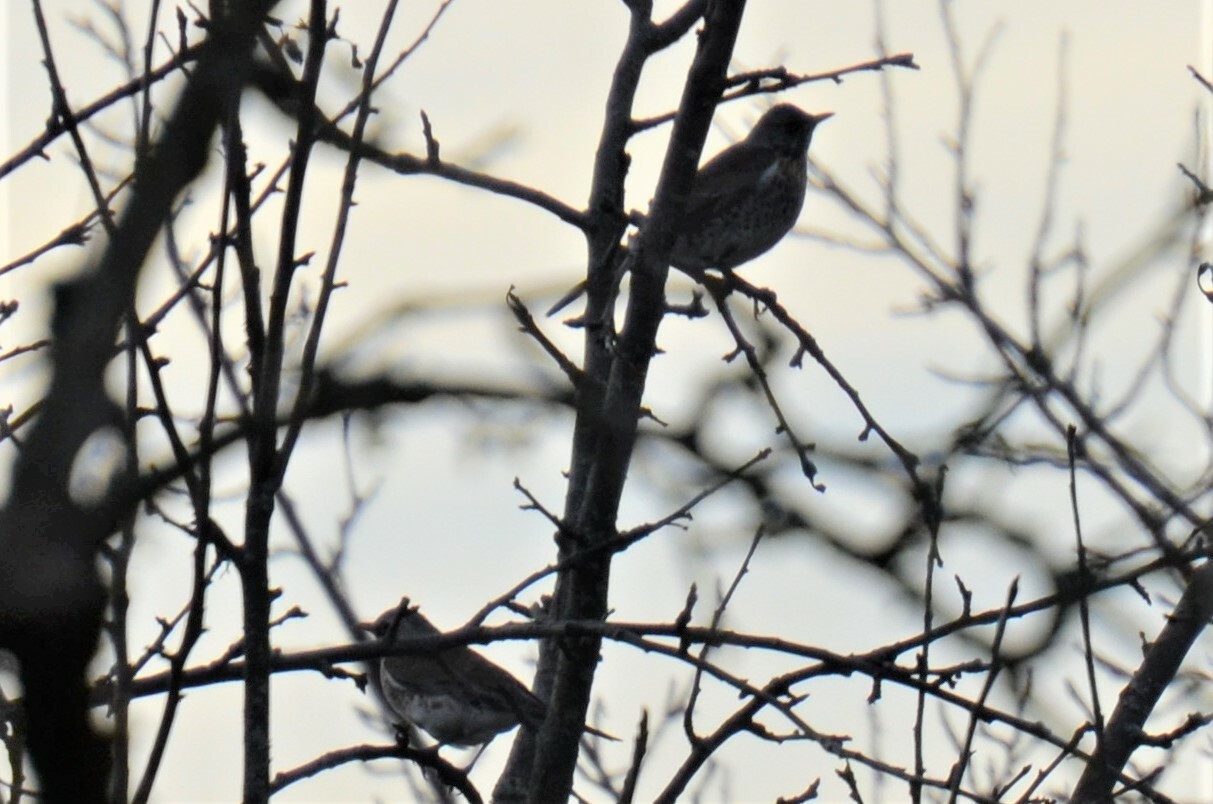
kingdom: Animalia
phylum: Chordata
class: Aves
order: Passeriformes
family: Turdidae
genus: Turdus
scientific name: Turdus pilaris
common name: Fieldfare
